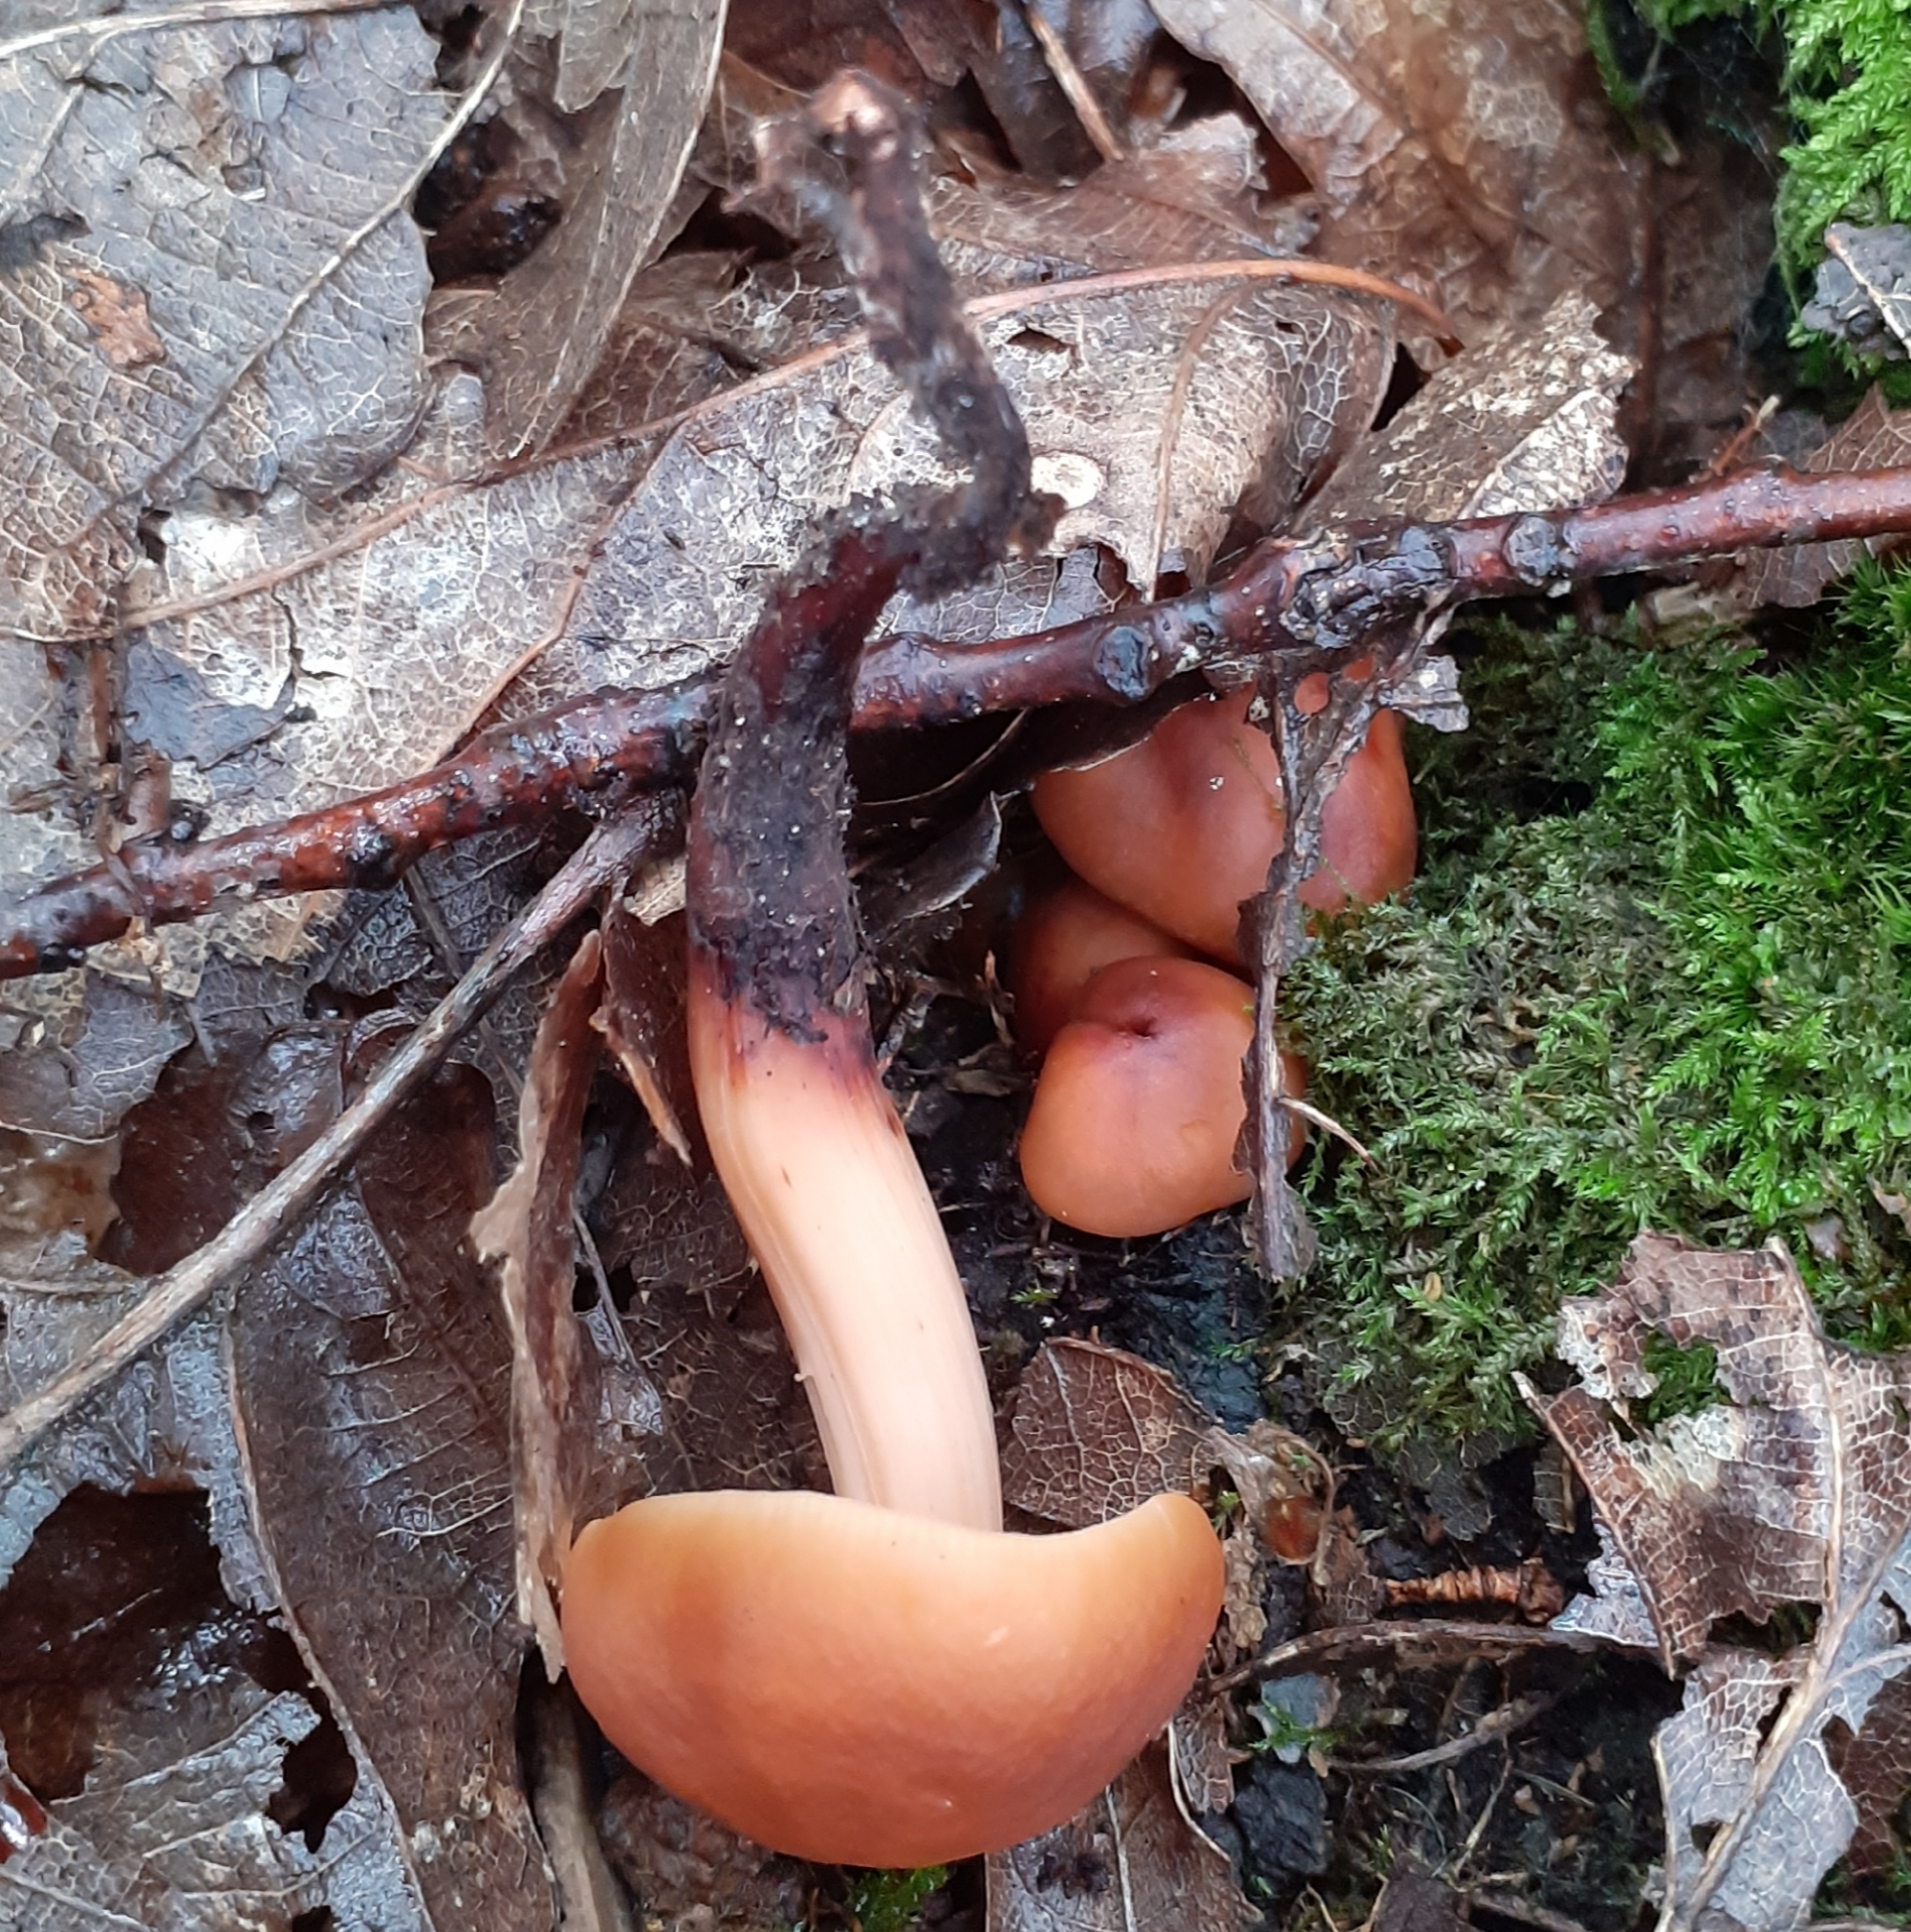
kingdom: Fungi
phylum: Basidiomycota
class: Agaricomycetes
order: Agaricales
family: Omphalotaceae
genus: Gymnopus
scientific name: Gymnopus fusipes
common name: Spindle shank
